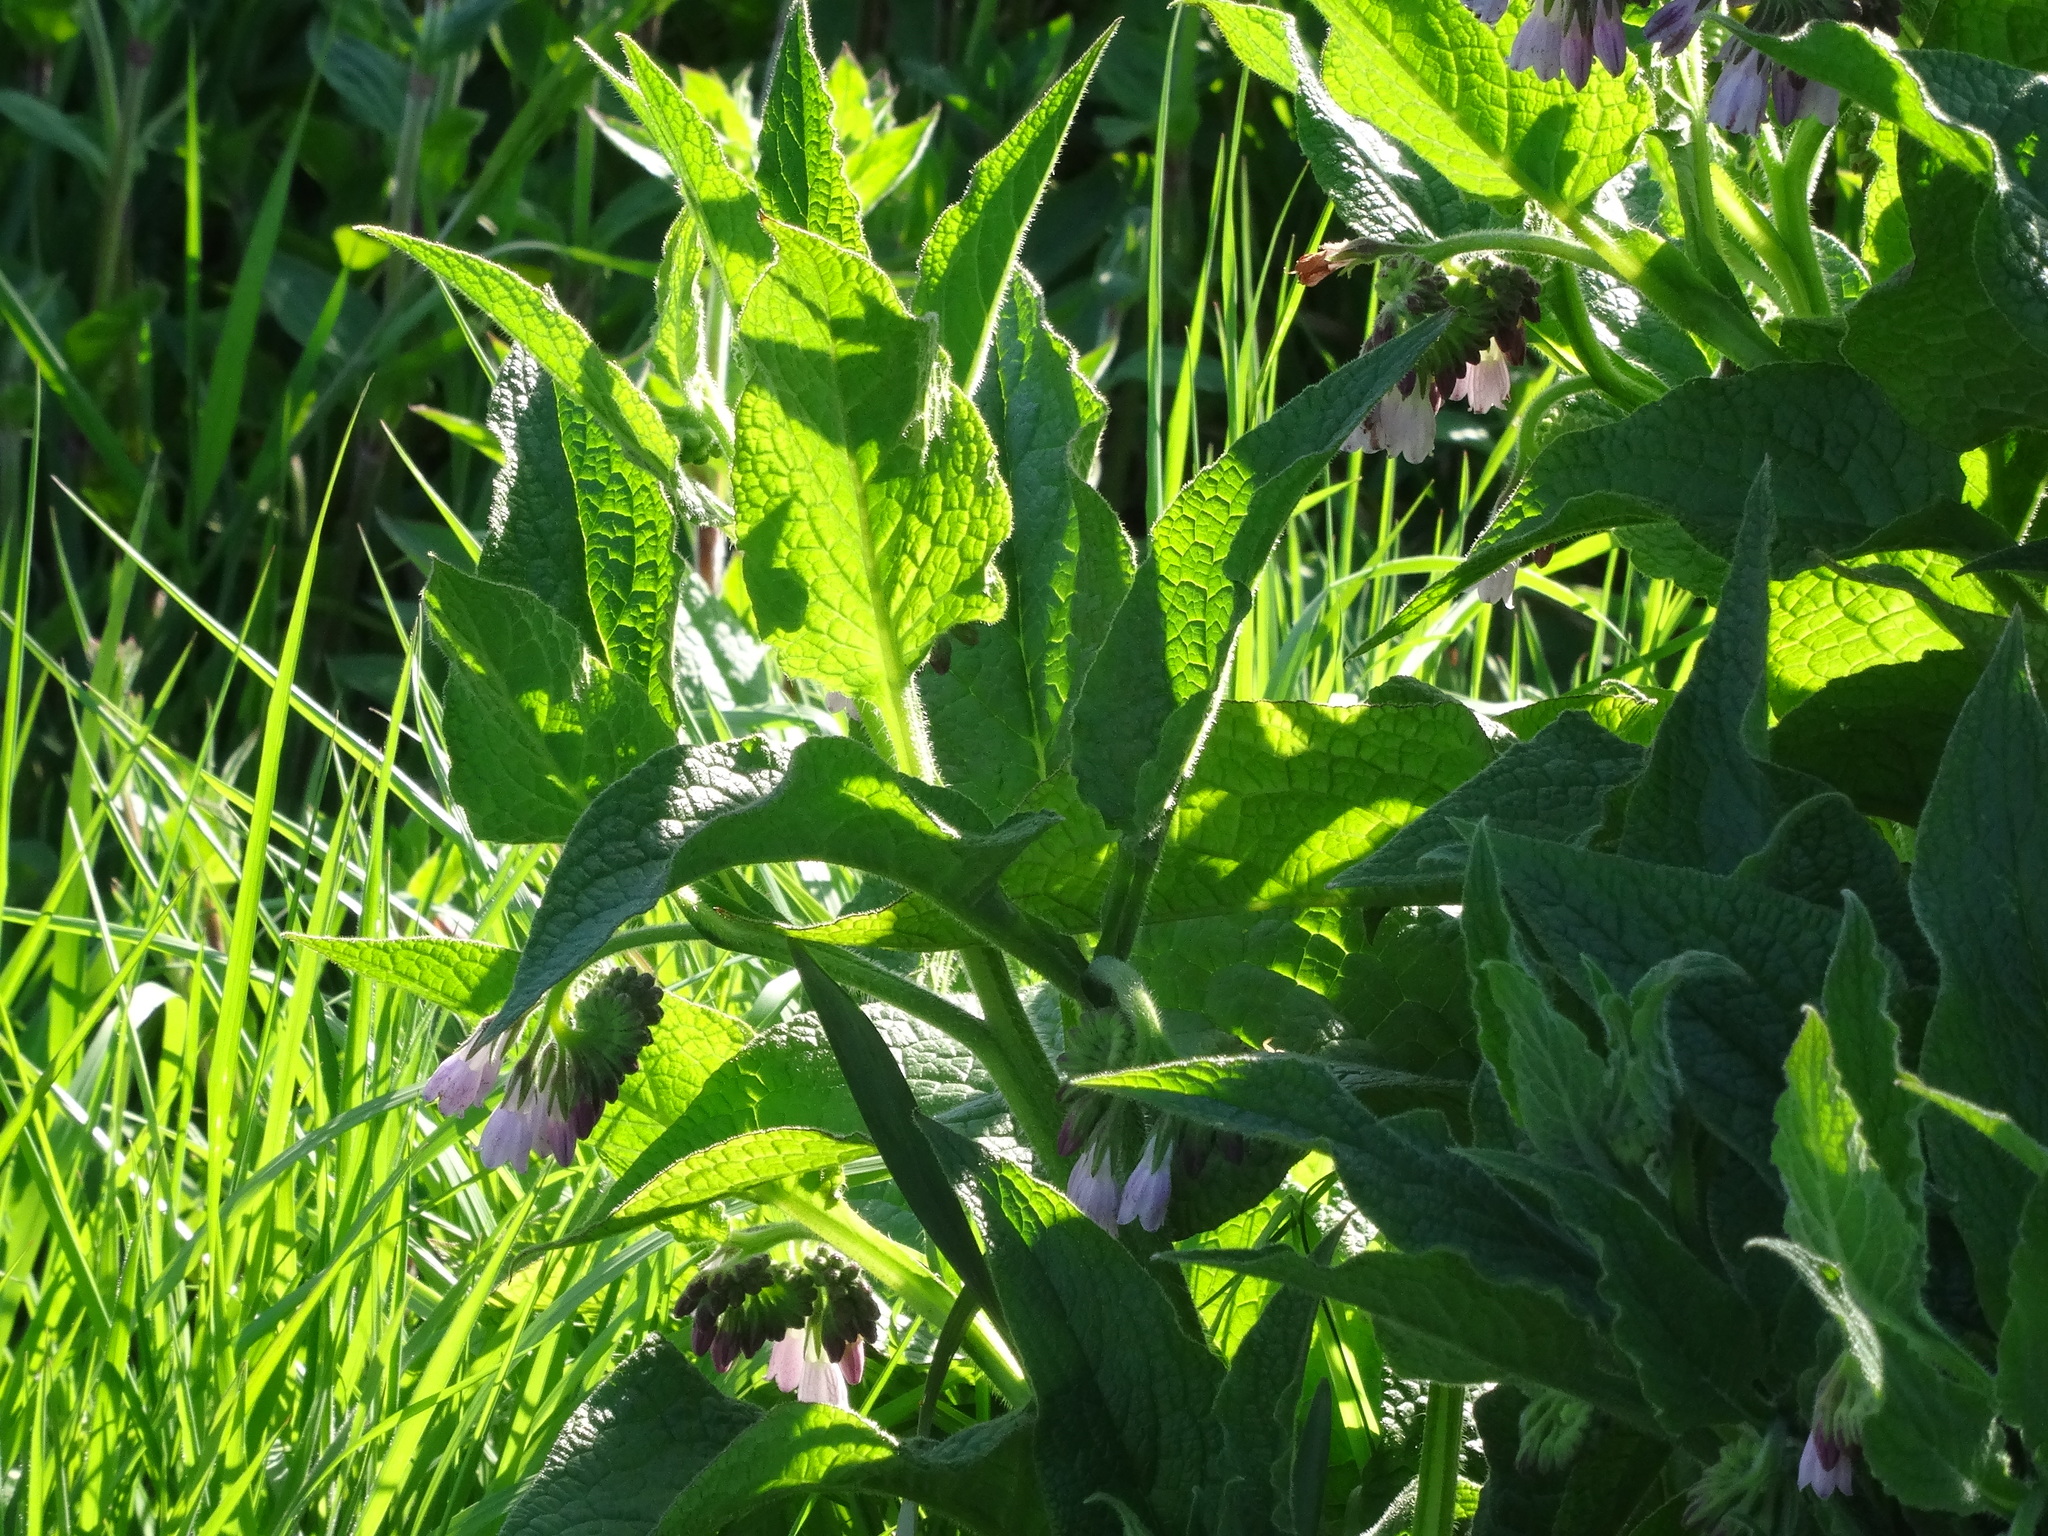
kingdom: Plantae
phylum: Tracheophyta
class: Magnoliopsida
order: Boraginales
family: Boraginaceae
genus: Symphytum
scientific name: Symphytum officinale
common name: Common comfrey
